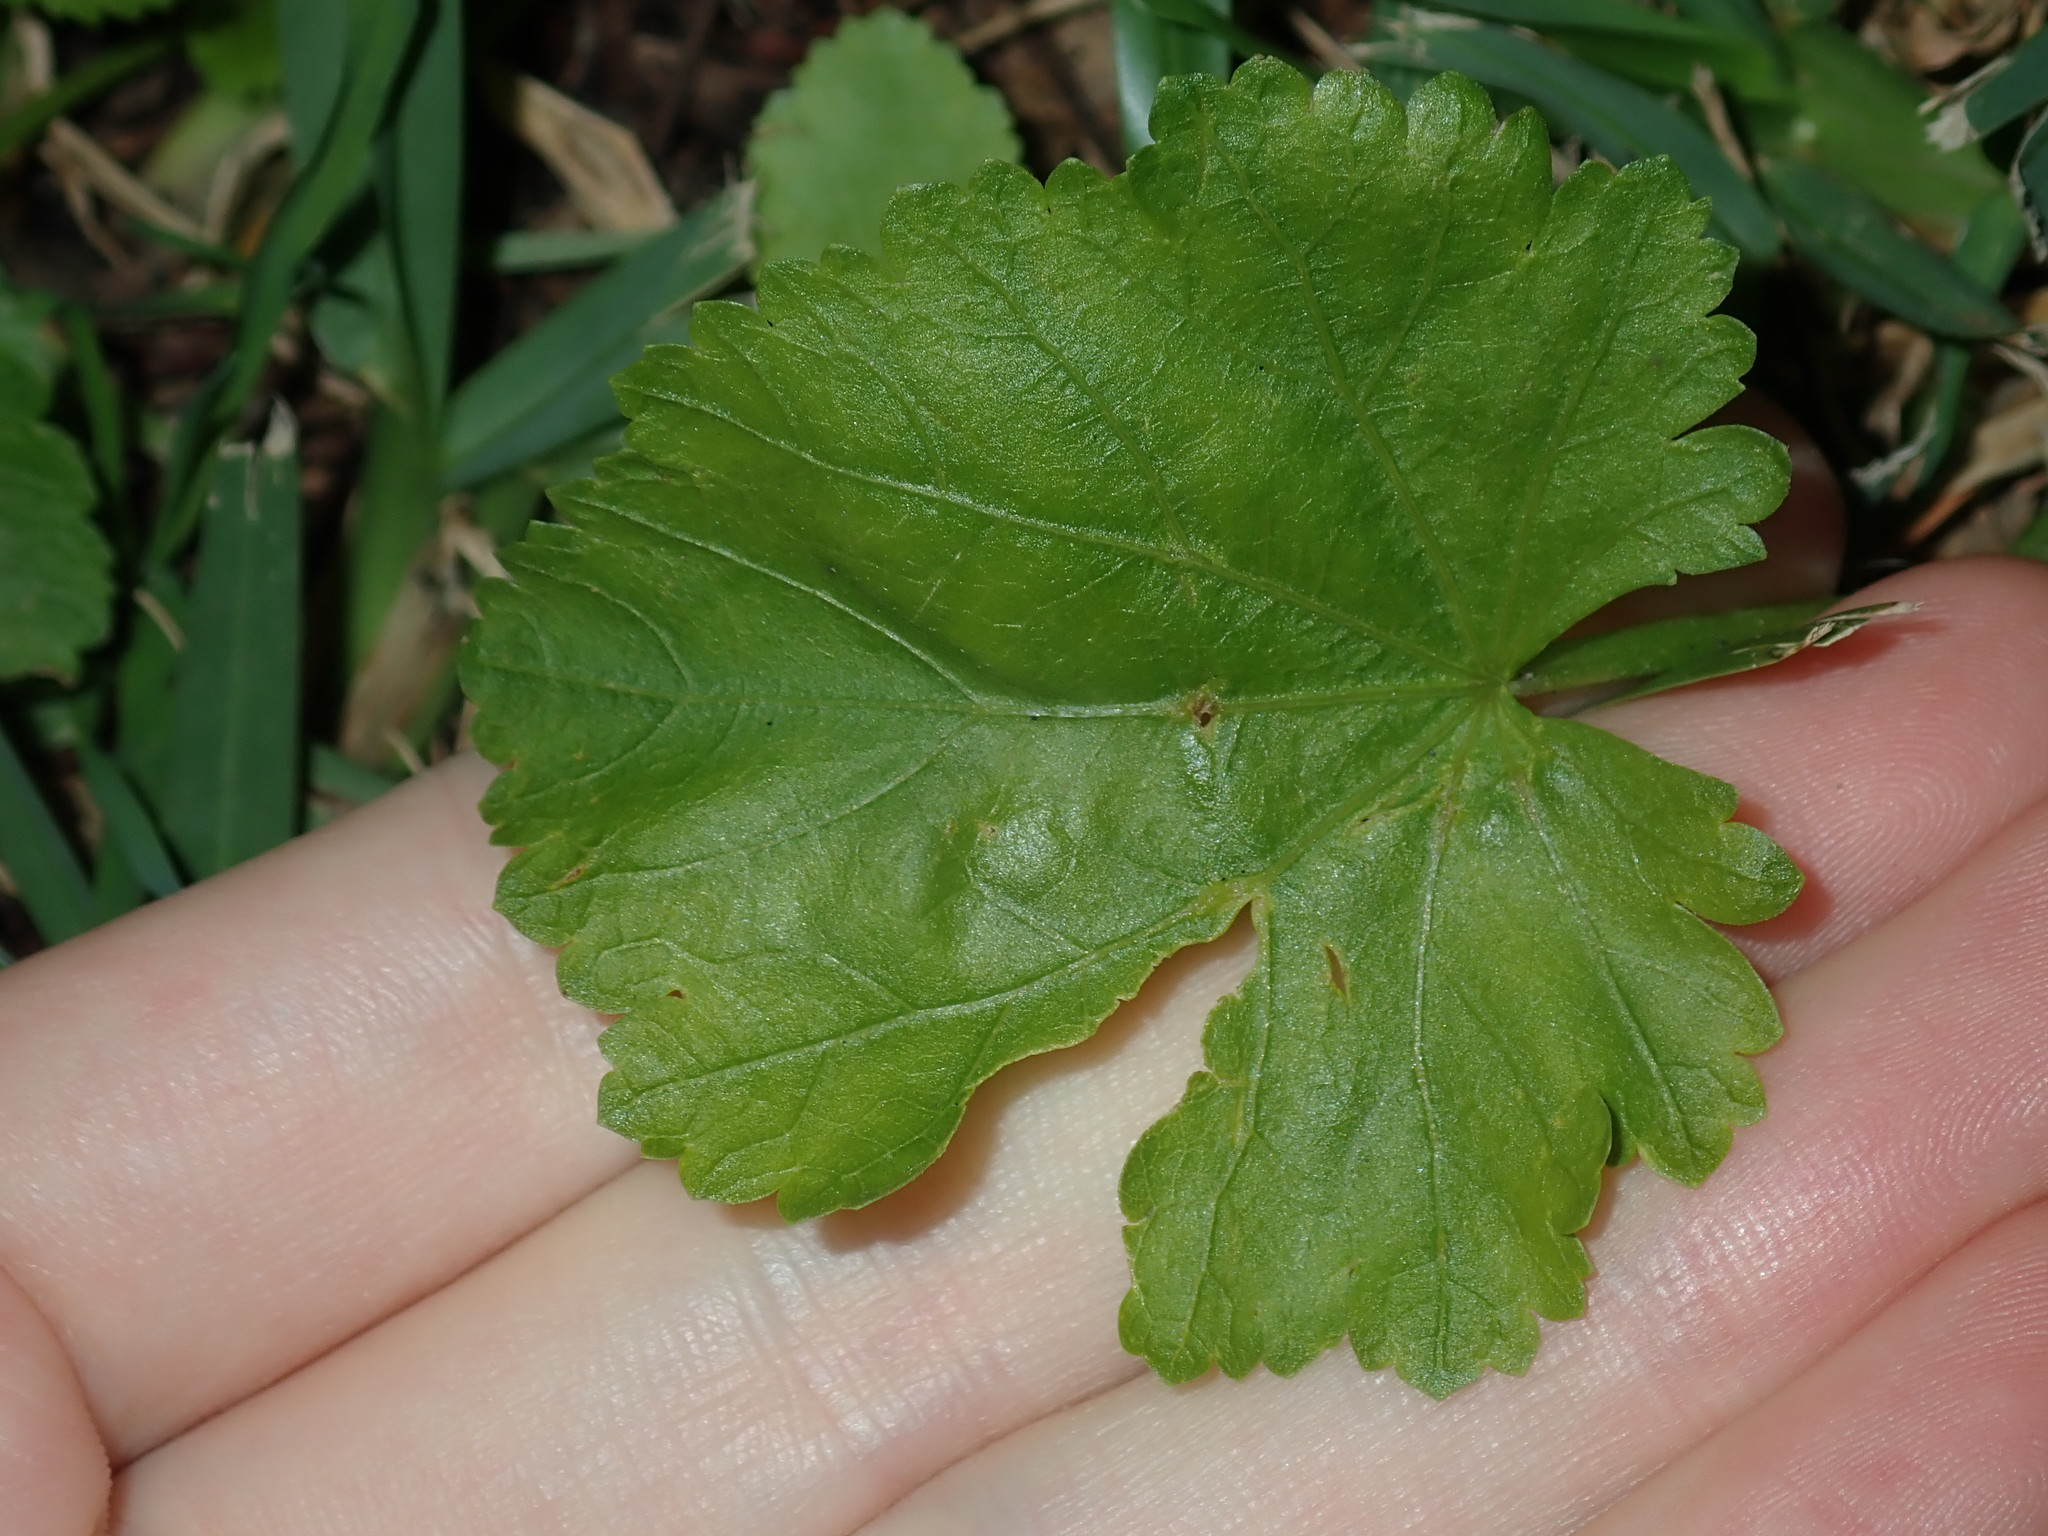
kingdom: Plantae
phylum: Tracheophyta
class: Magnoliopsida
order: Malvales
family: Malvaceae
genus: Modiola
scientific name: Modiola caroliniana
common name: Carolina bristlemallow
